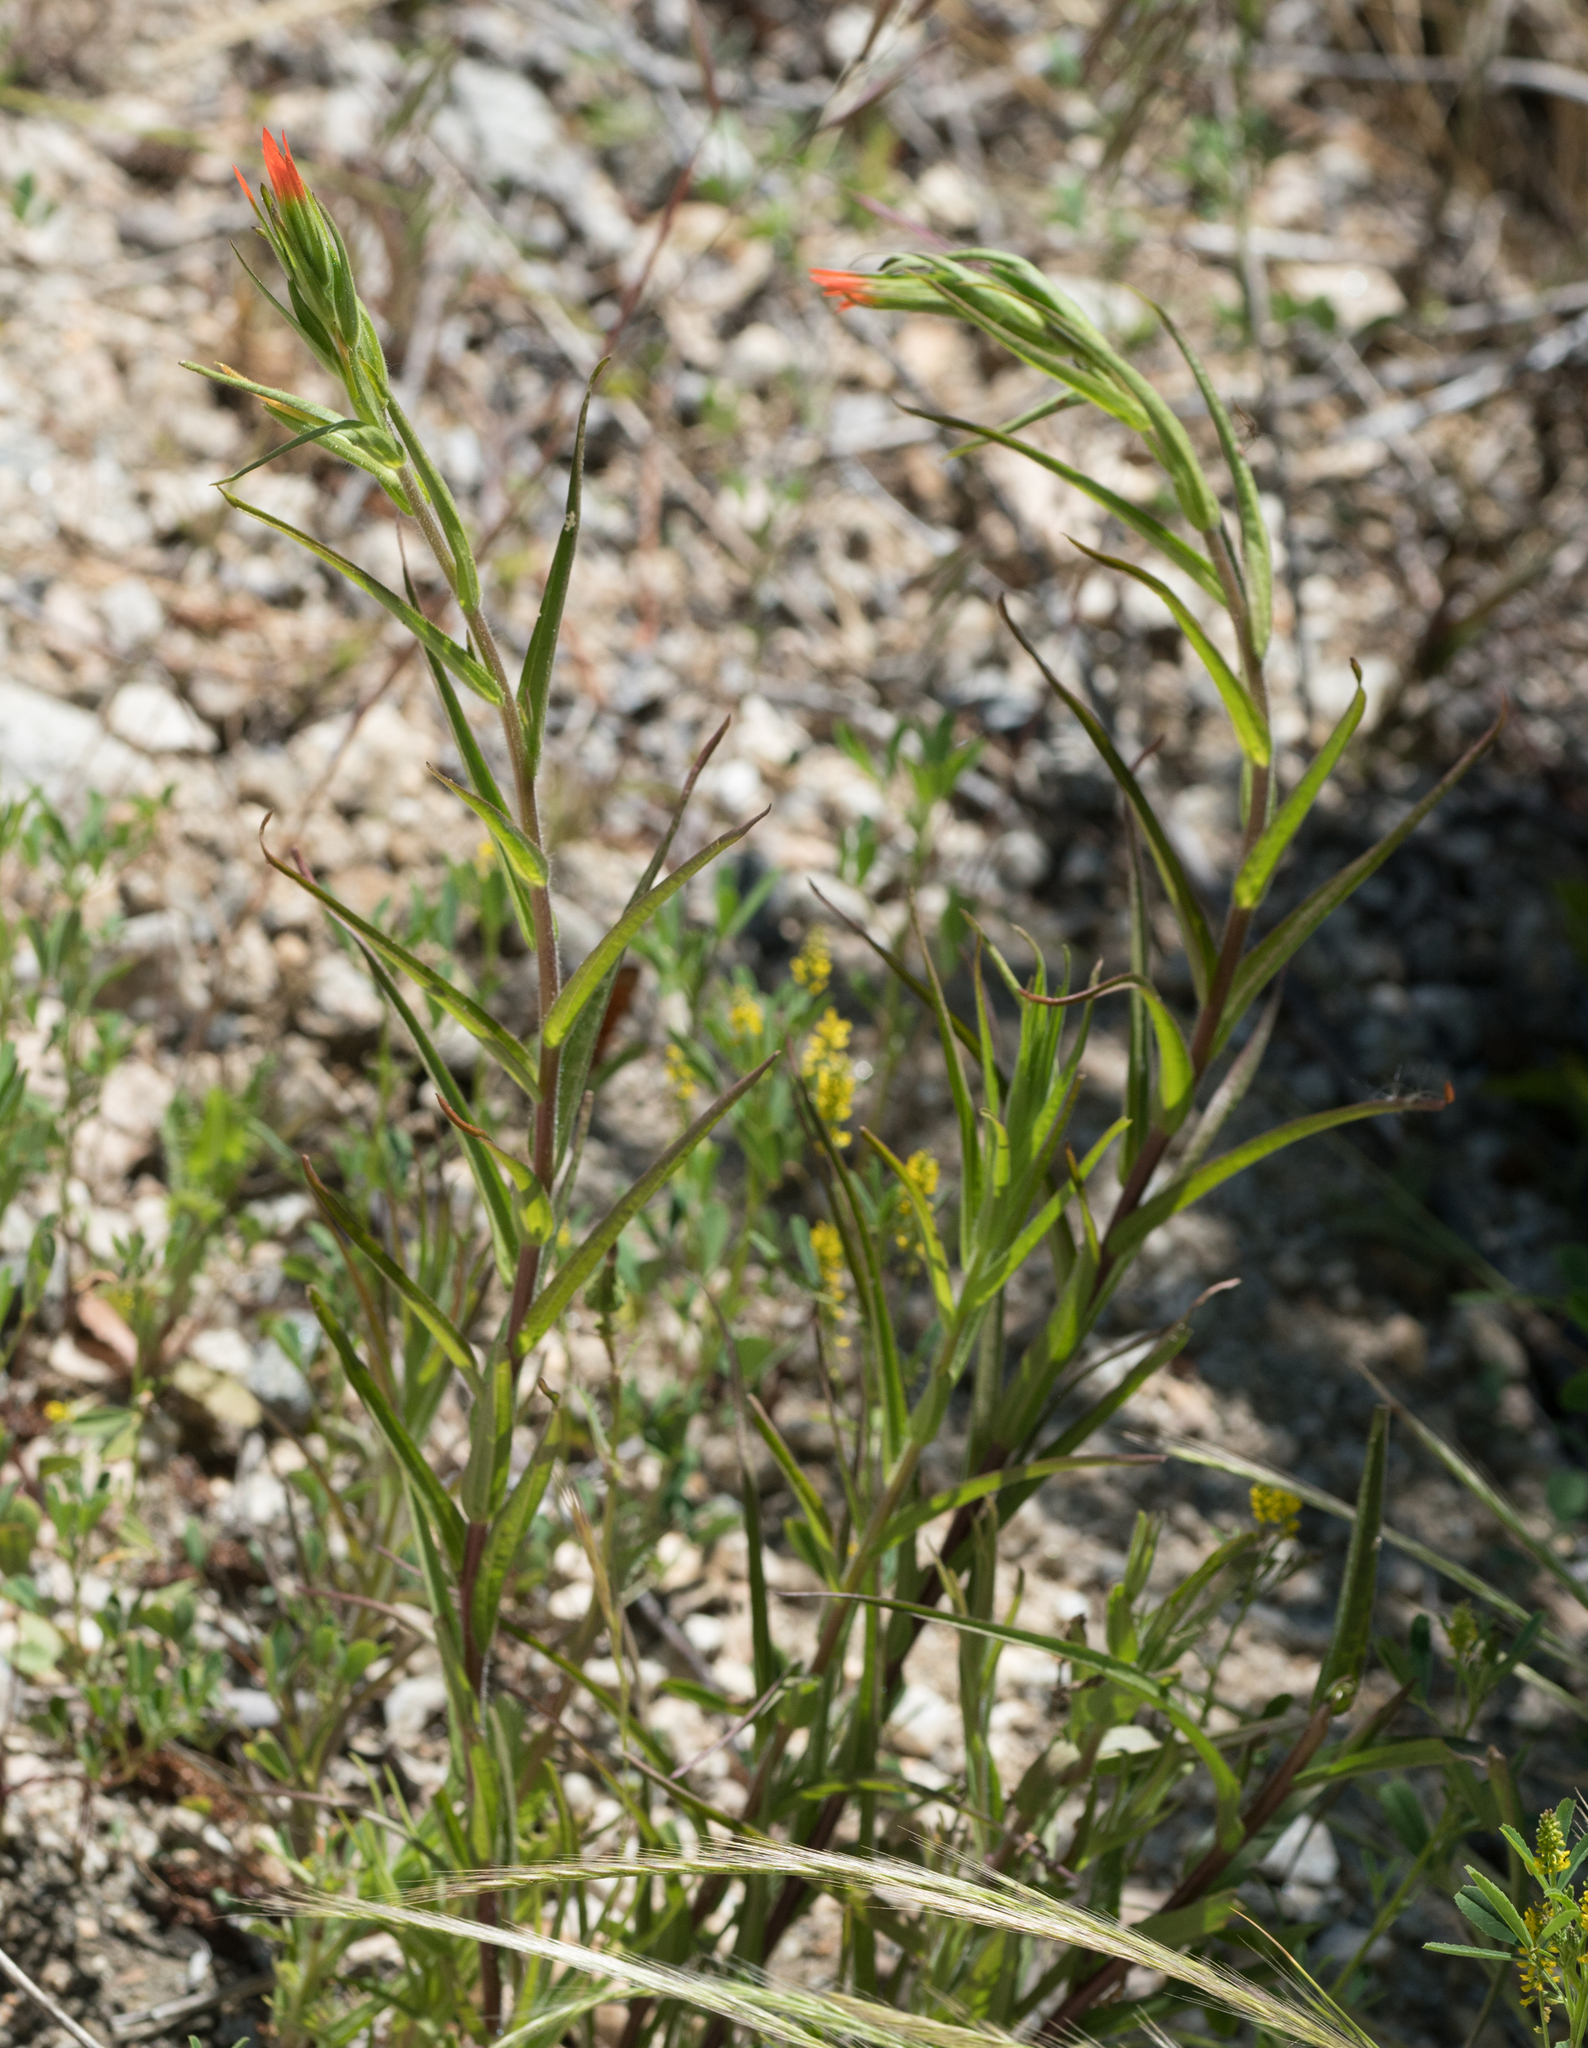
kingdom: Plantae
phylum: Tracheophyta
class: Magnoliopsida
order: Lamiales
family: Orobanchaceae
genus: Castilleja
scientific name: Castilleja minor
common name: Seep paintbrush
